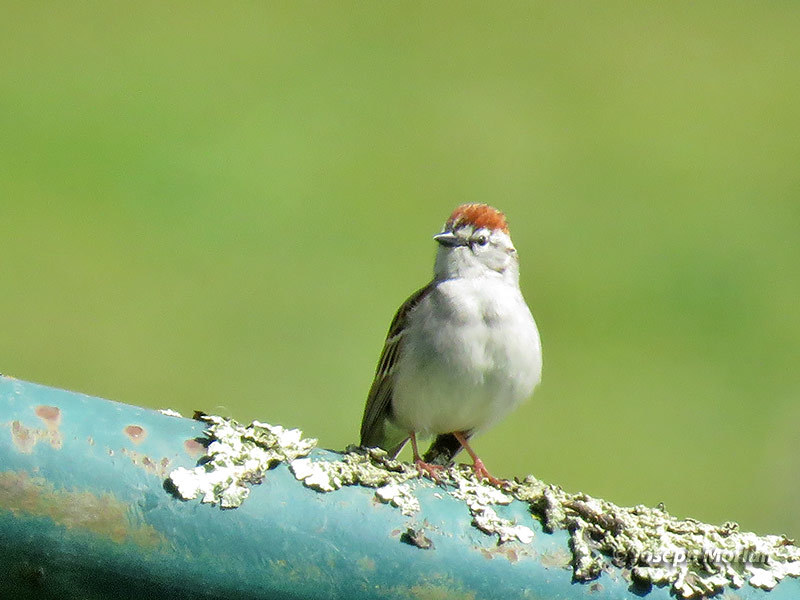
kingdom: Animalia
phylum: Chordata
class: Aves
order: Passeriformes
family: Passerellidae
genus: Spizella
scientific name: Spizella passerina
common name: Chipping sparrow
